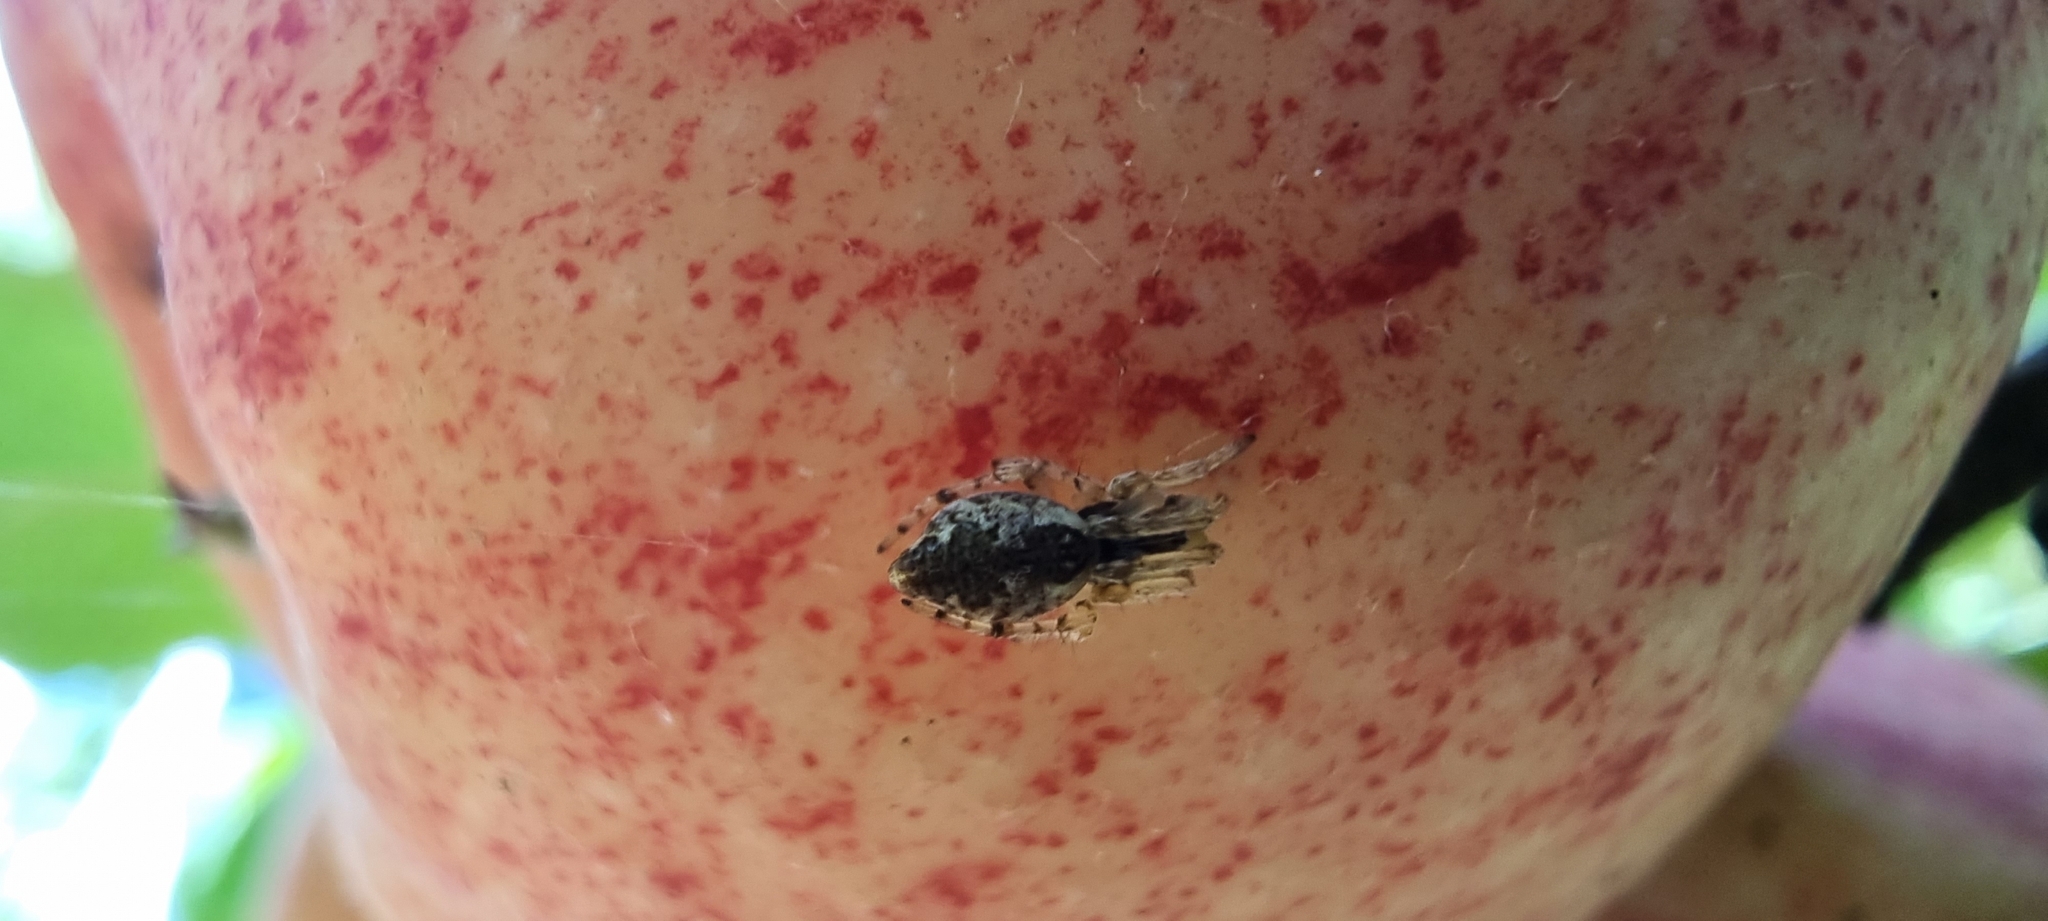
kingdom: Animalia
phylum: Arthropoda
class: Arachnida
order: Araneae
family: Araneidae
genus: Cyclosa
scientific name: Cyclosa conica
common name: Conical trashline orbweaver
